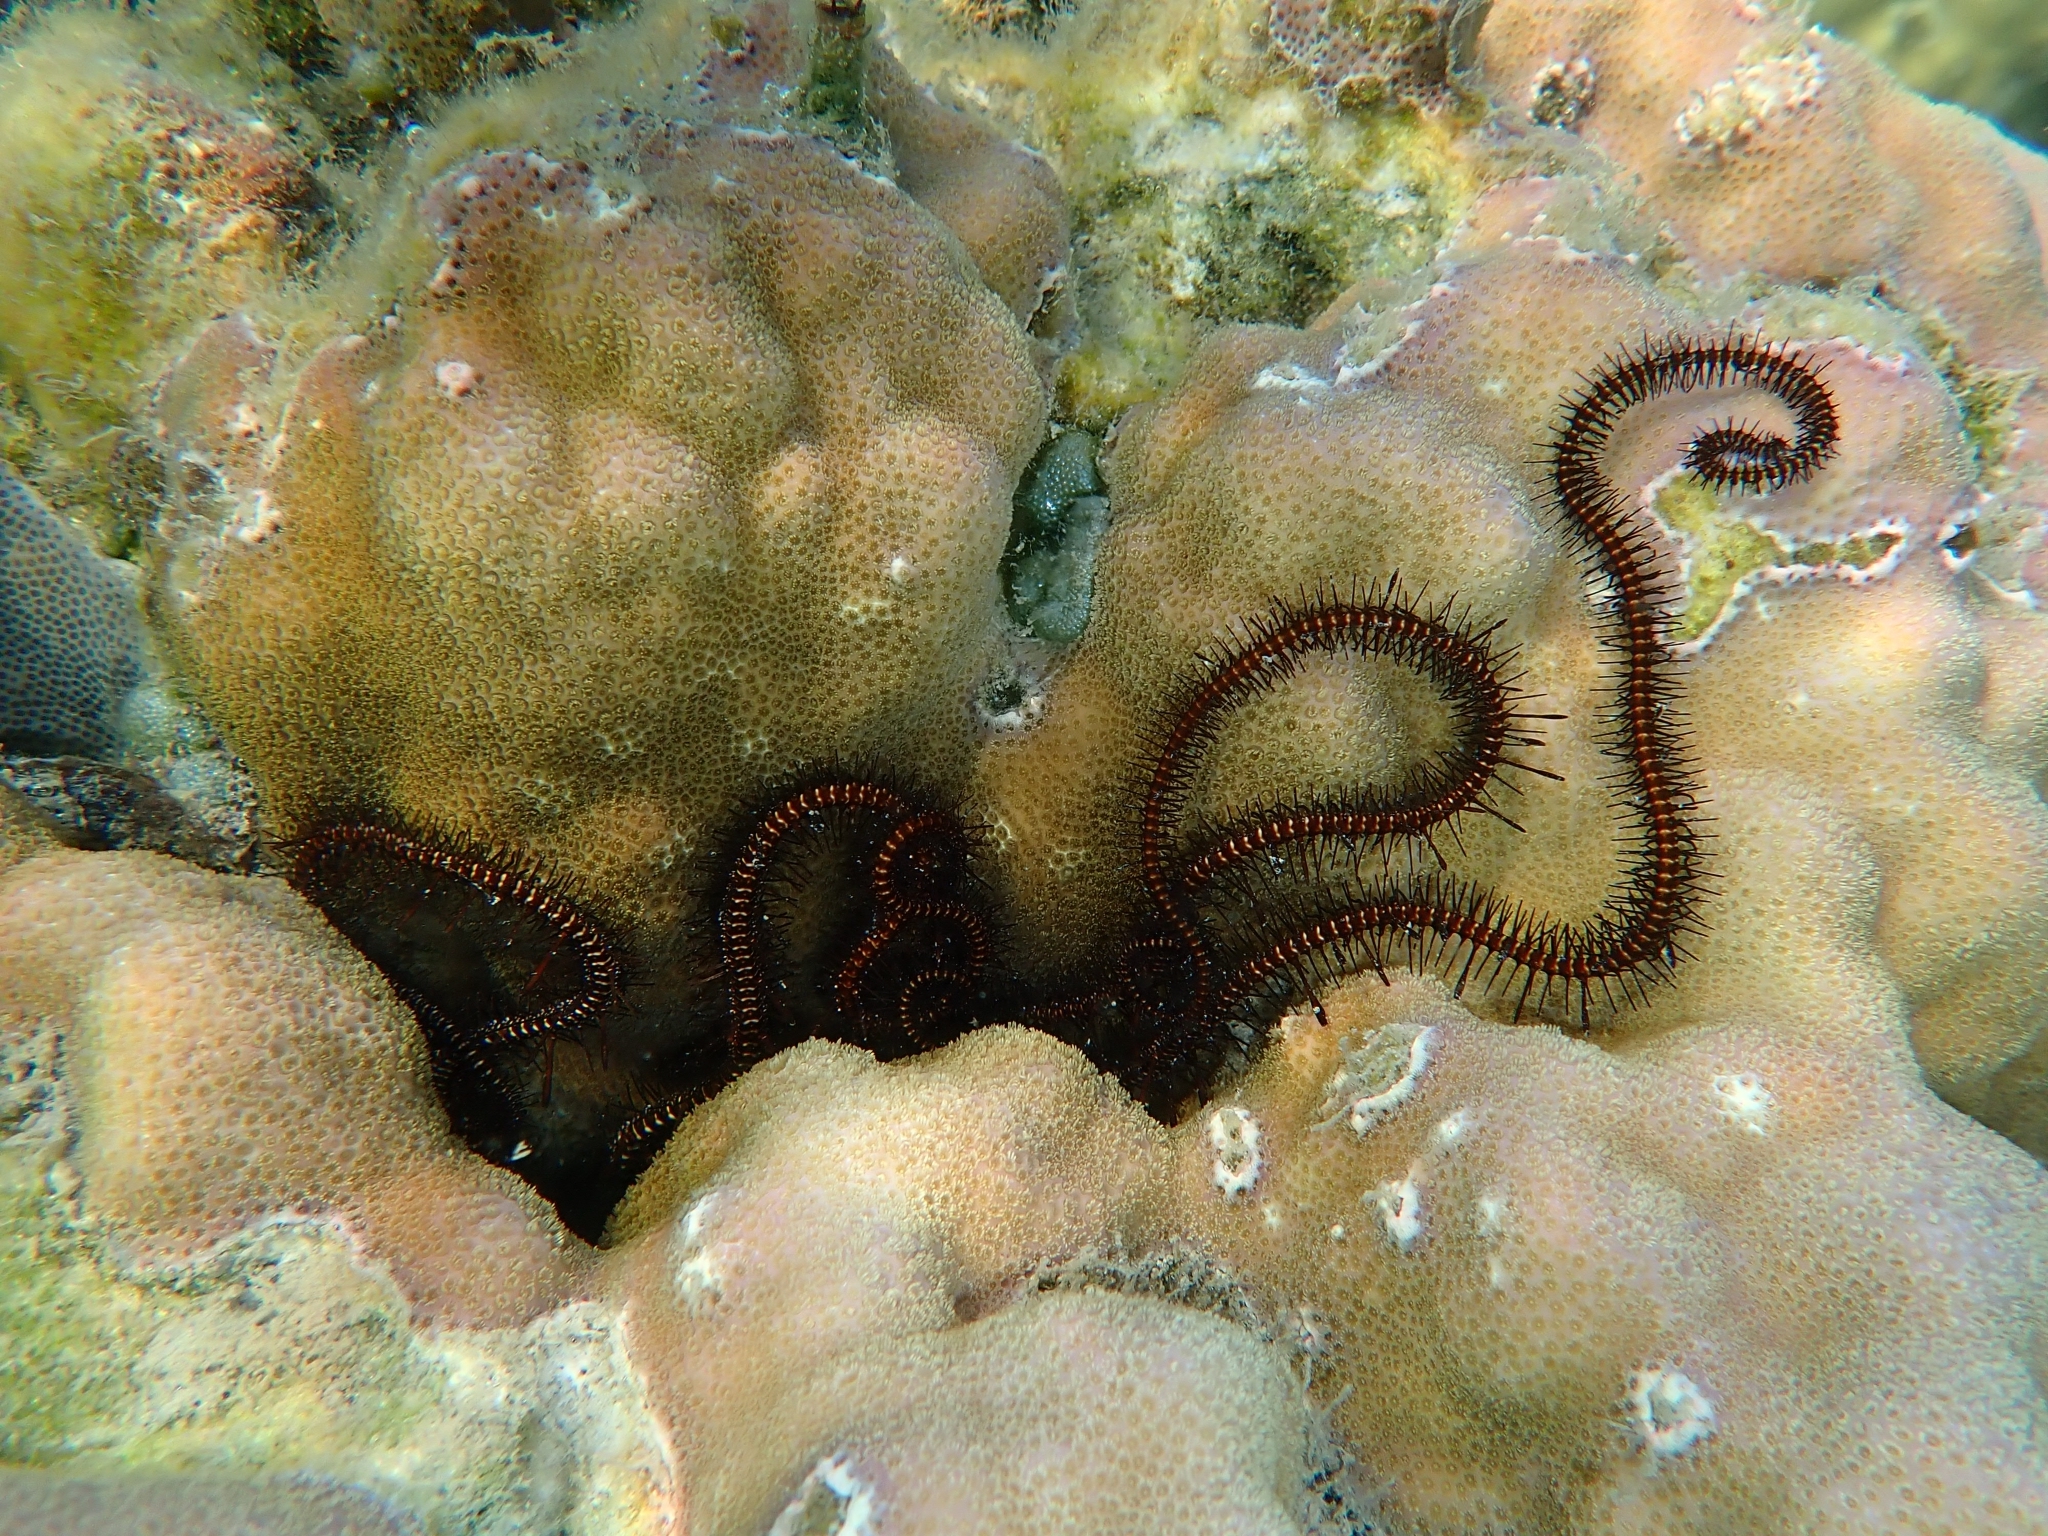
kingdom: Animalia
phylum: Echinodermata
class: Ophiuroidea
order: Ophiacanthida
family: Ophiocomidae
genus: Ophiomastix
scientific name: Ophiomastix janualis
